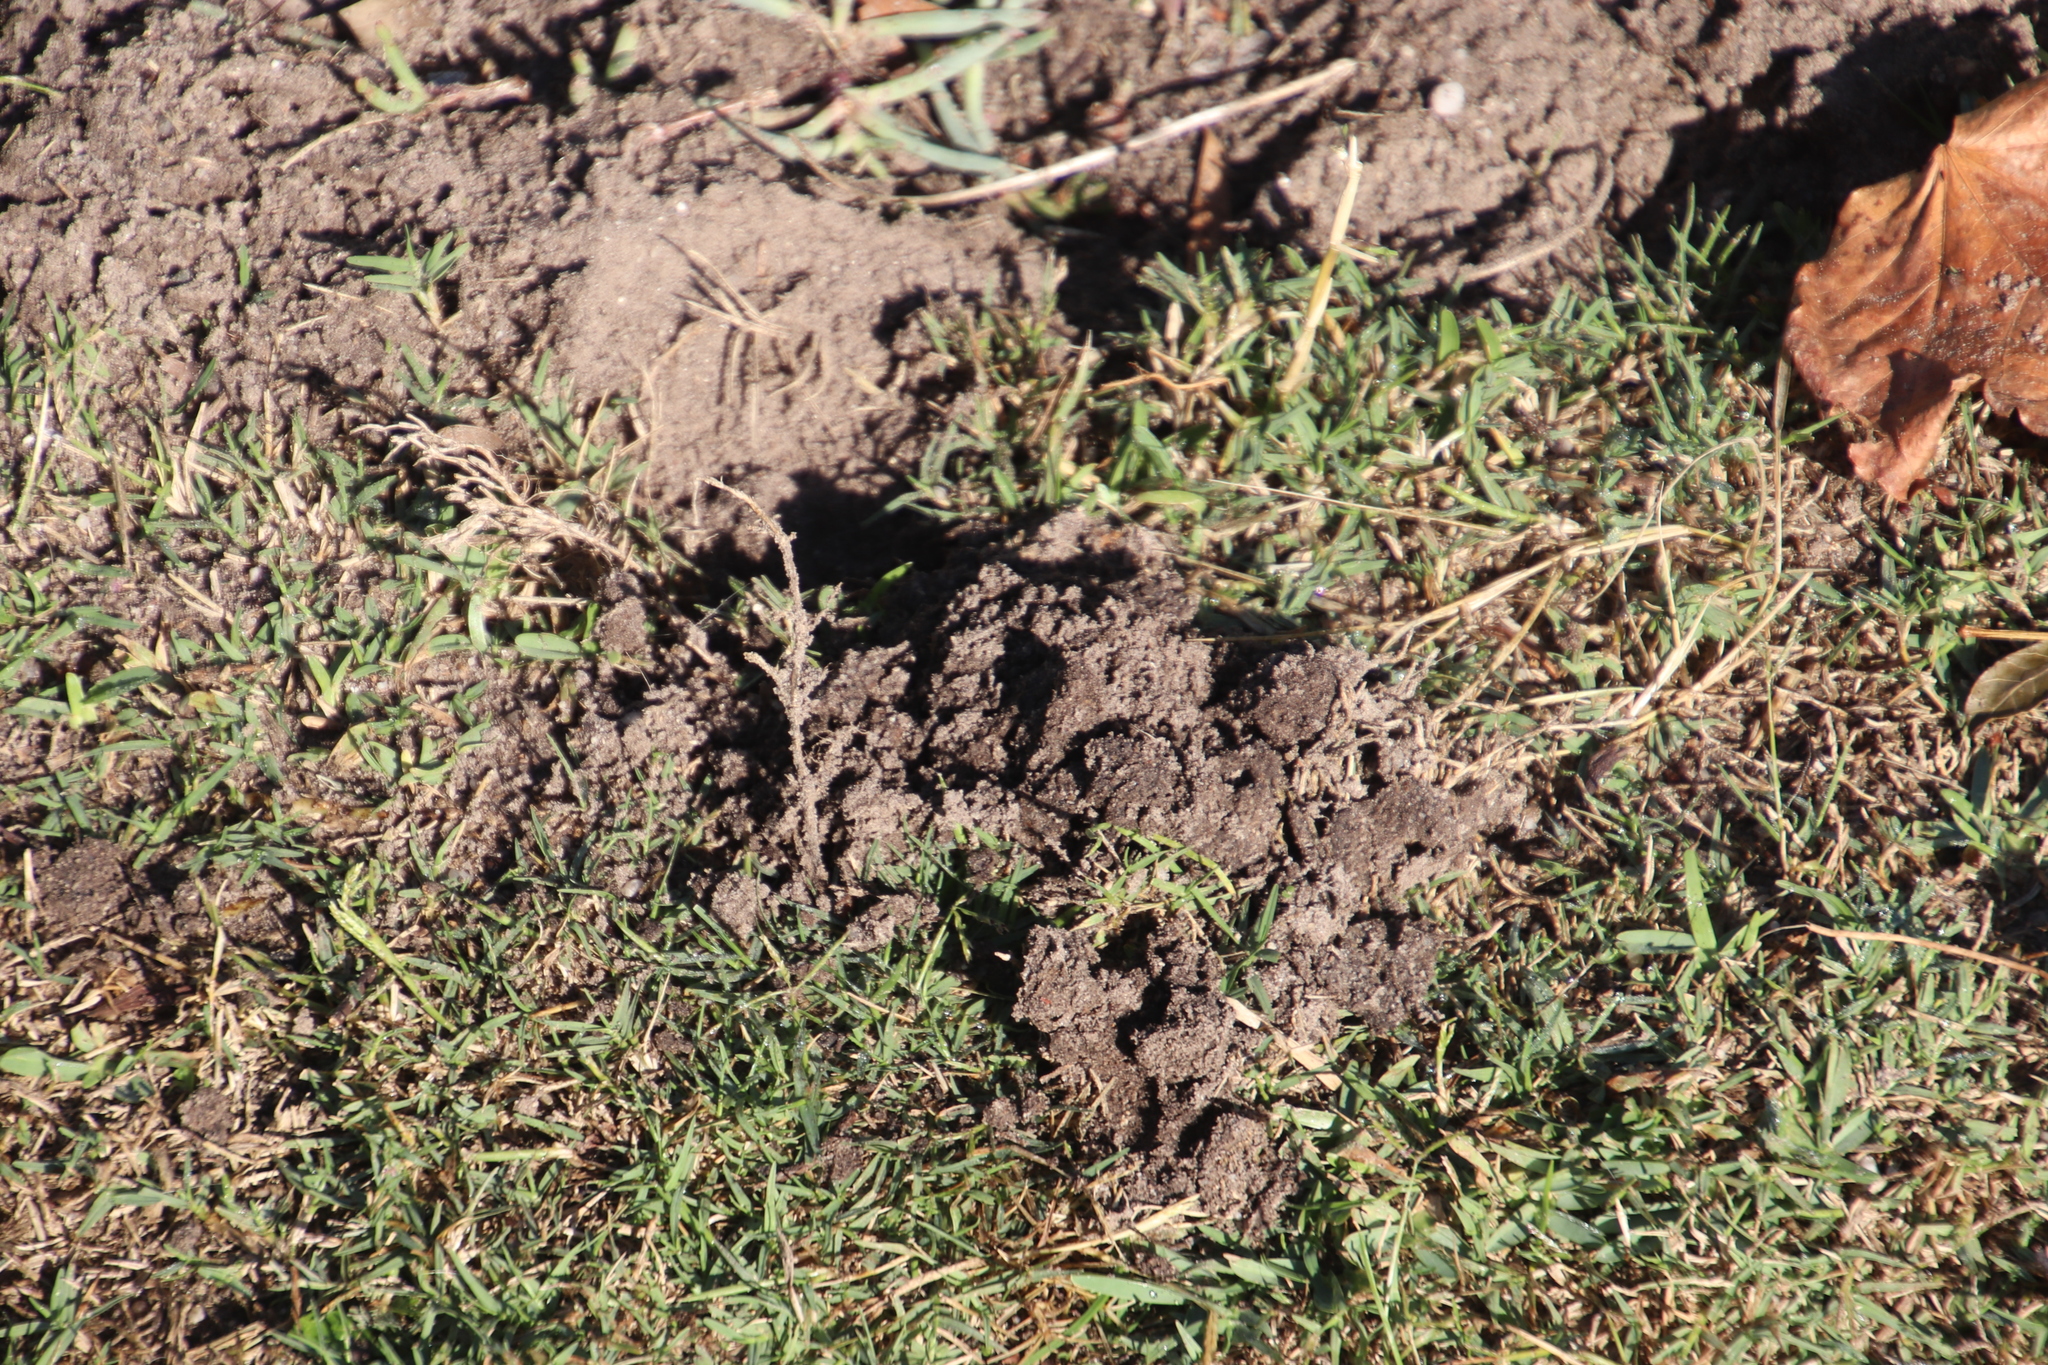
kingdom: Animalia
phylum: Chordata
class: Mammalia
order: Afrosoricida
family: Chrysochloridae
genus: Chrysochloris
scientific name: Chrysochloris asiatica
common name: Cape golden mole
